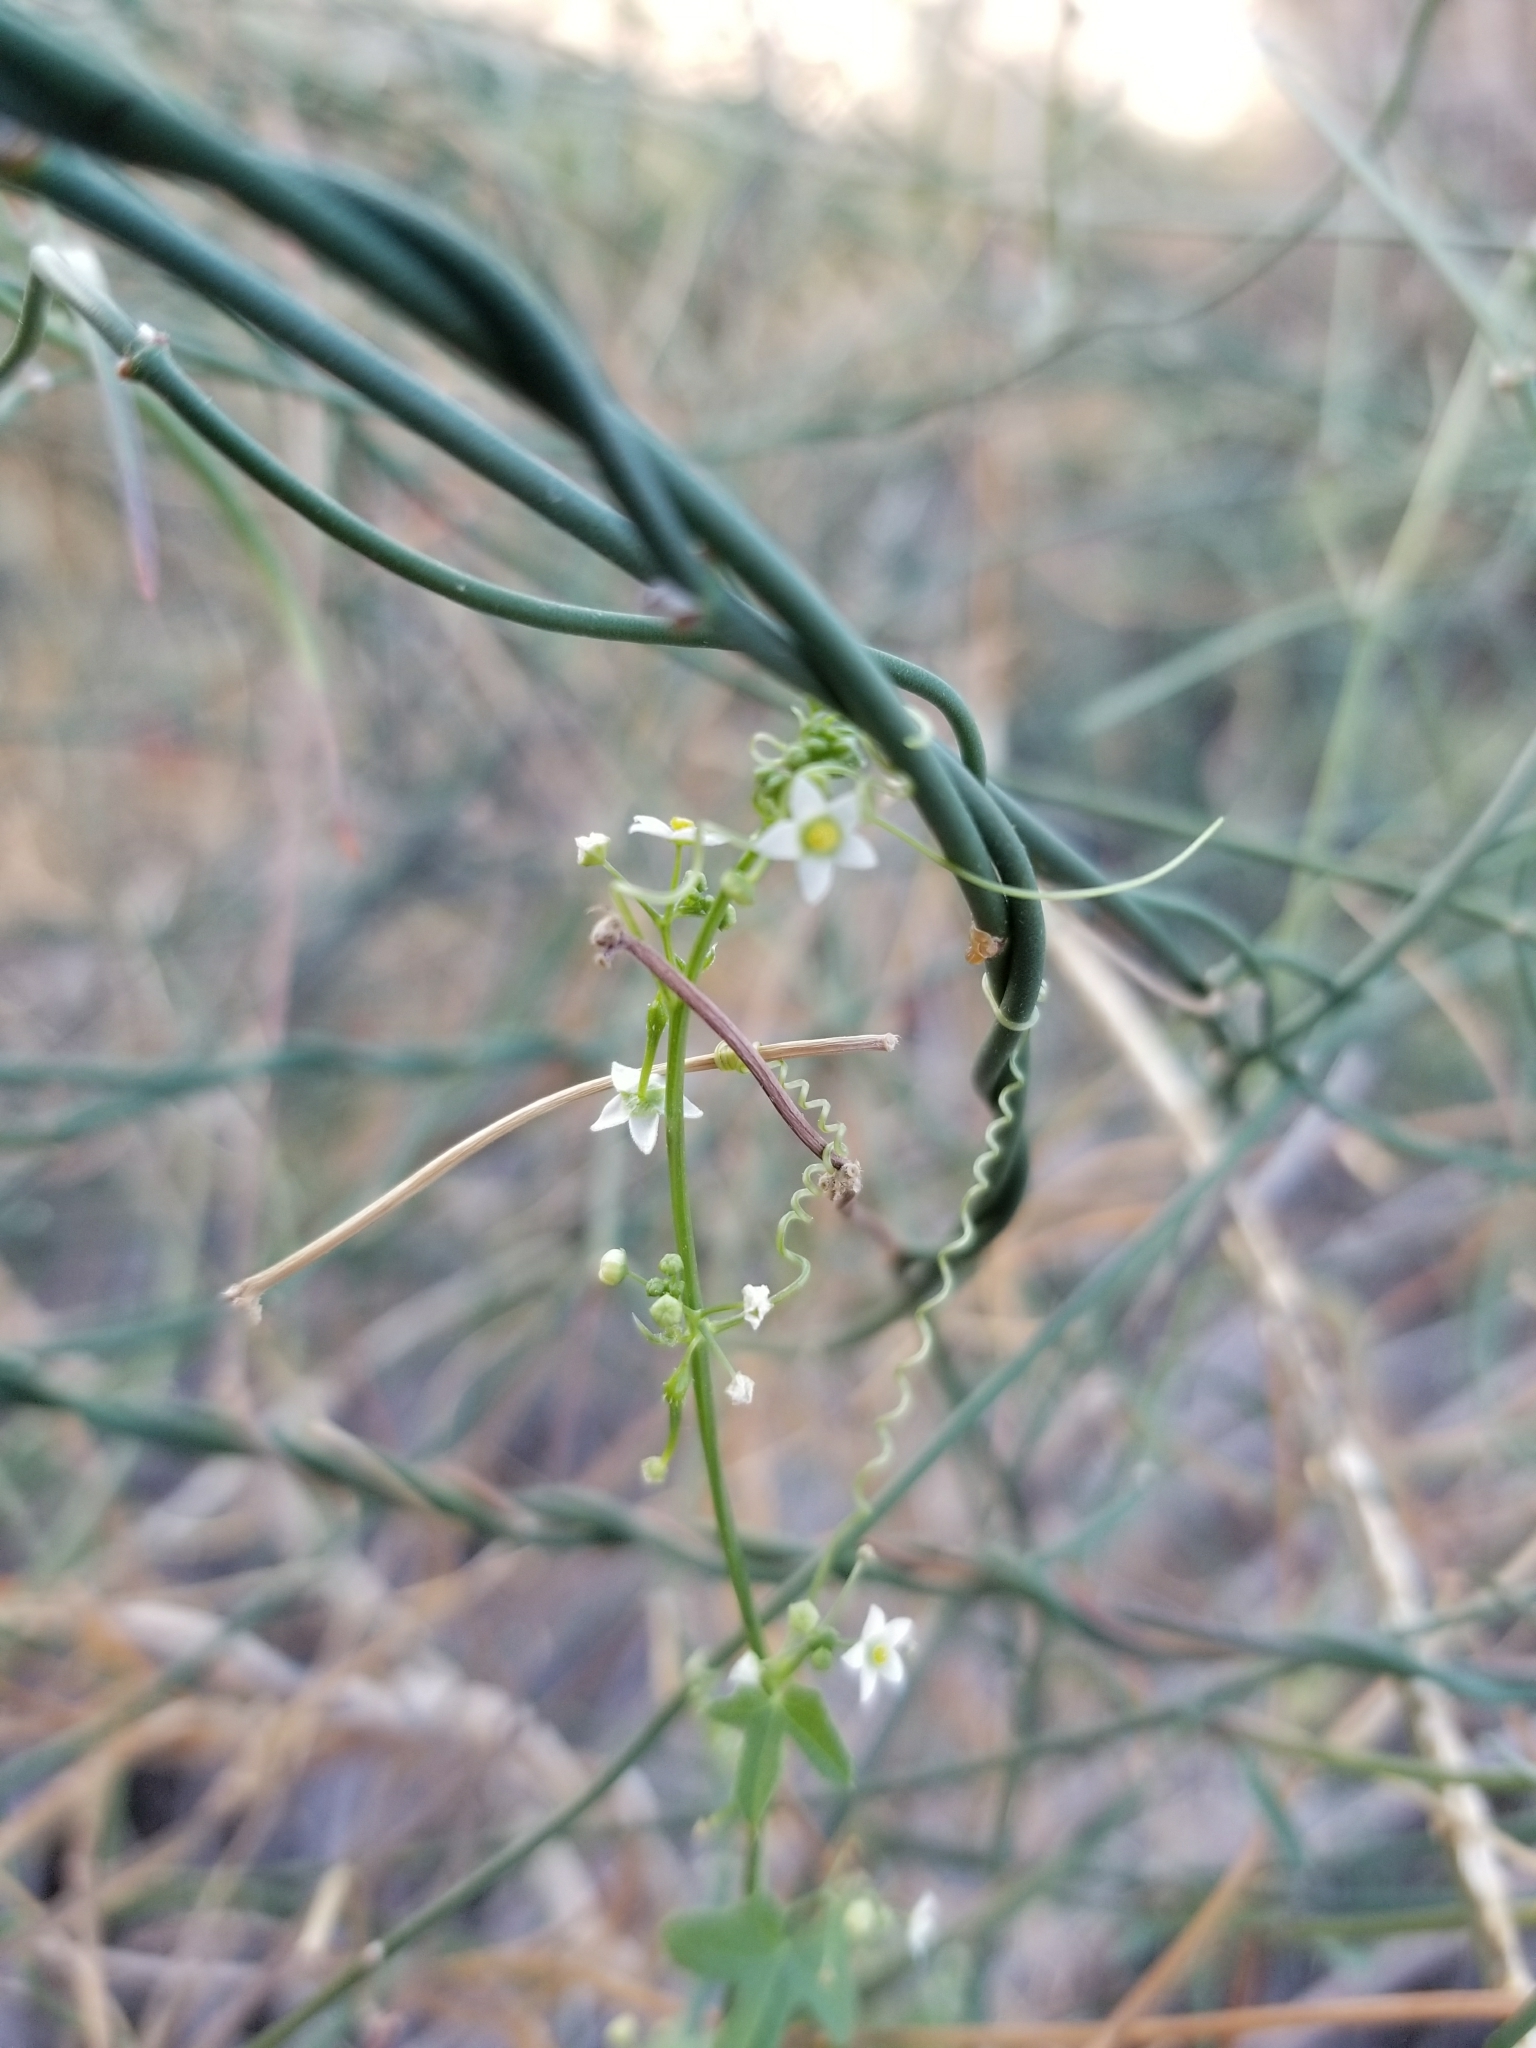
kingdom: Plantae
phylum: Tracheophyta
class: Magnoliopsida
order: Cucurbitales
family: Cucurbitaceae
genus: Echinopepon
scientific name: Echinopepon bigelovii
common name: Desert starvine
